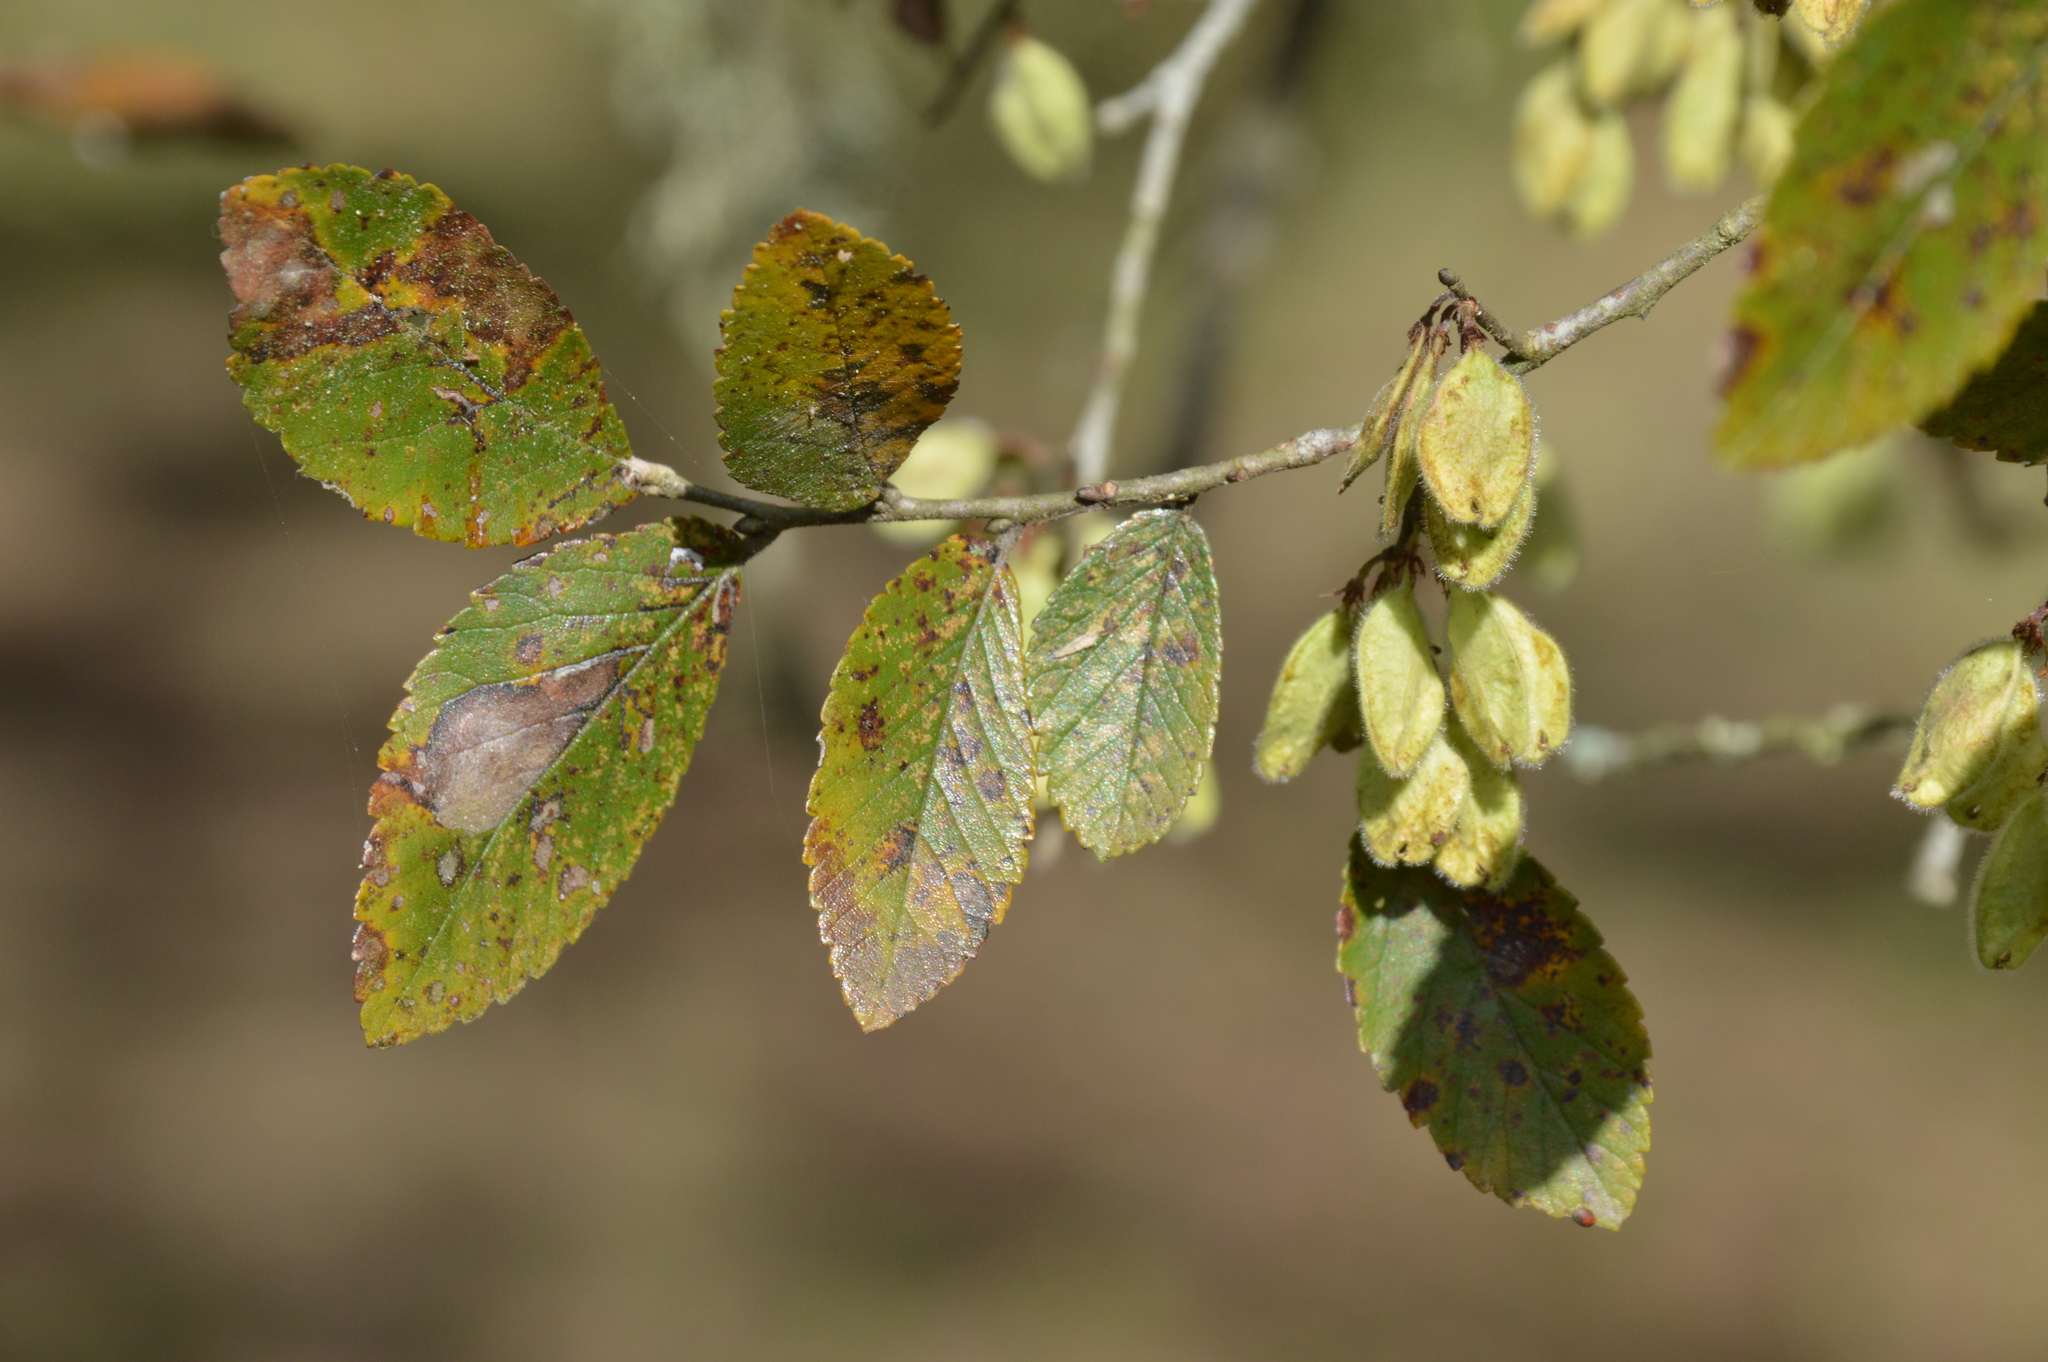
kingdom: Plantae
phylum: Tracheophyta
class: Magnoliopsida
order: Rosales
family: Ulmaceae
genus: Ulmus
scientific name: Ulmus crassifolia
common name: Basket elm
